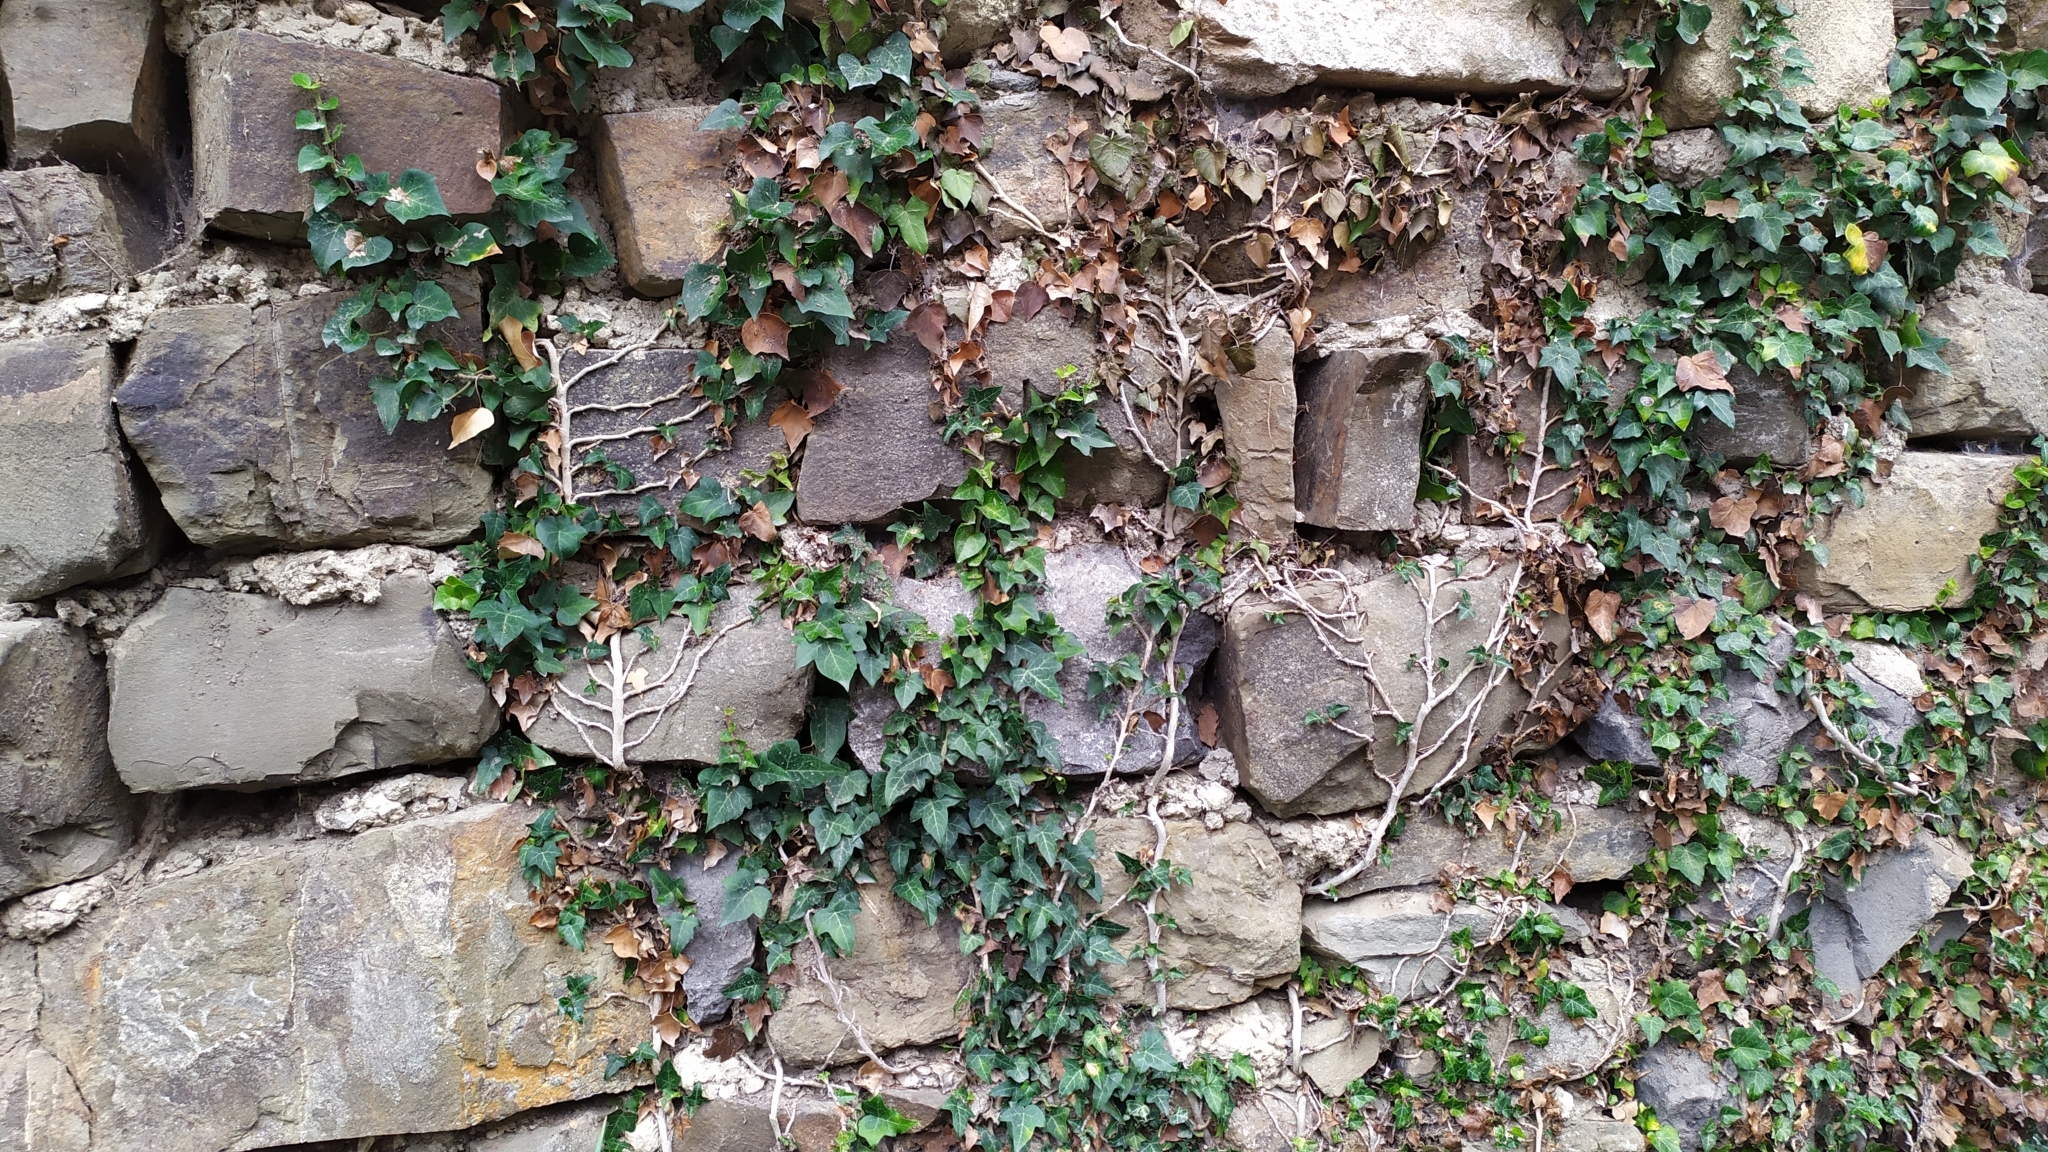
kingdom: Plantae
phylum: Tracheophyta
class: Magnoliopsida
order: Apiales
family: Araliaceae
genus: Hedera
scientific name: Hedera helix
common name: Ivy
